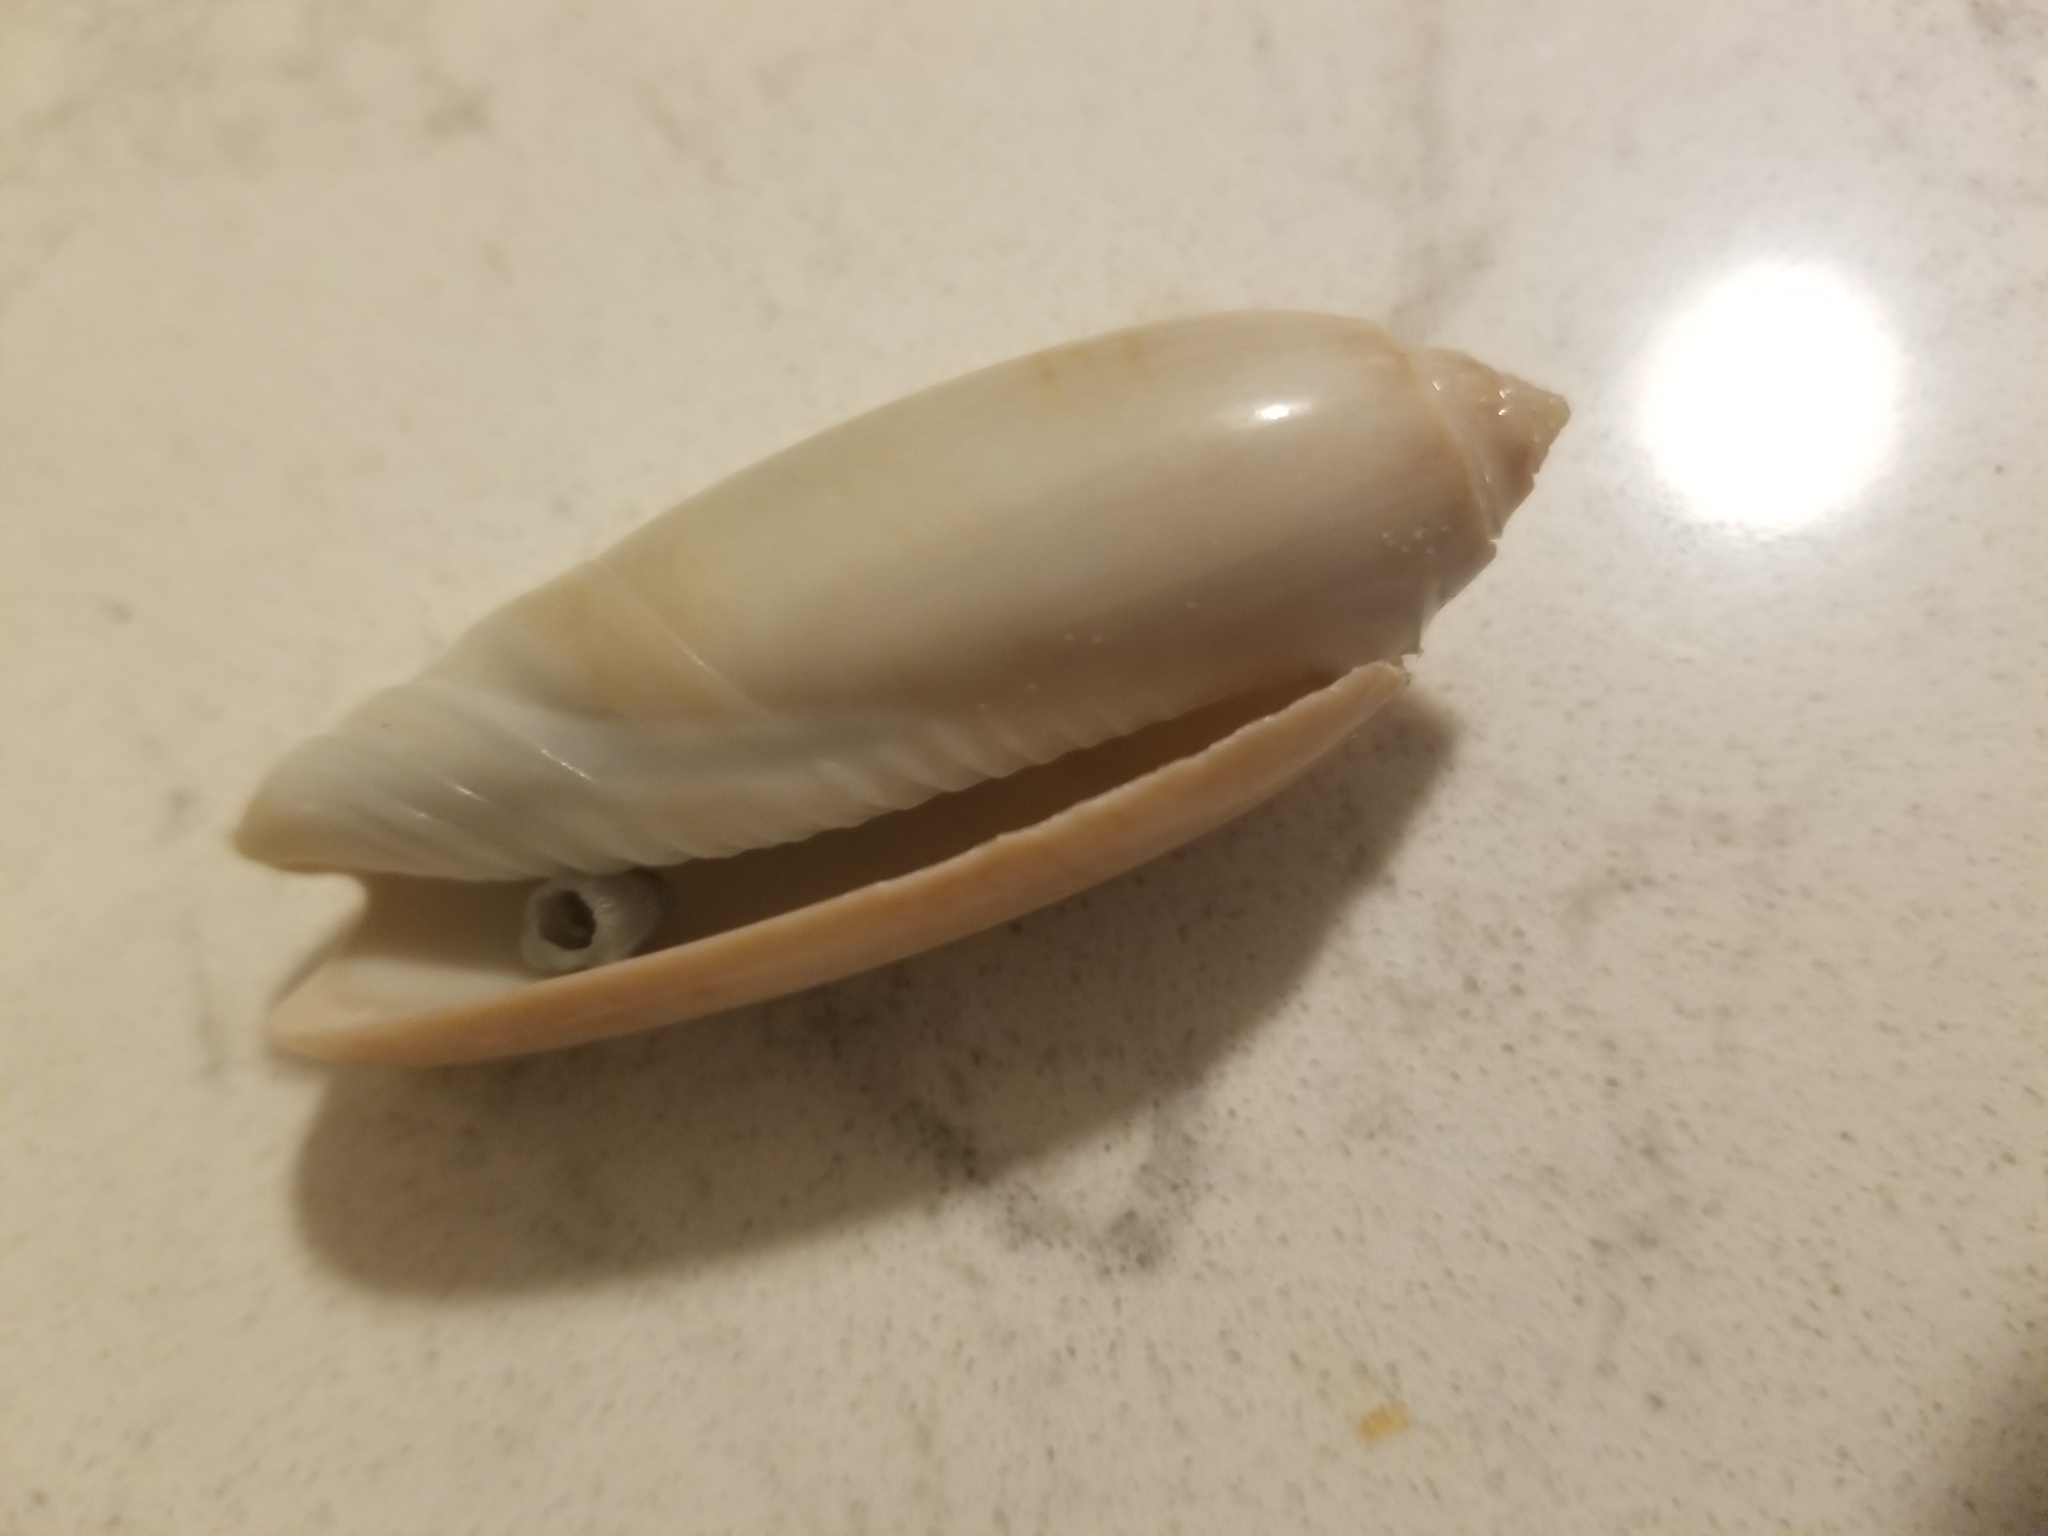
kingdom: Animalia
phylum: Mollusca
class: Gastropoda
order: Neogastropoda
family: Olividae
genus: Oliva
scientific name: Oliva sayana
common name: Lettered olive
